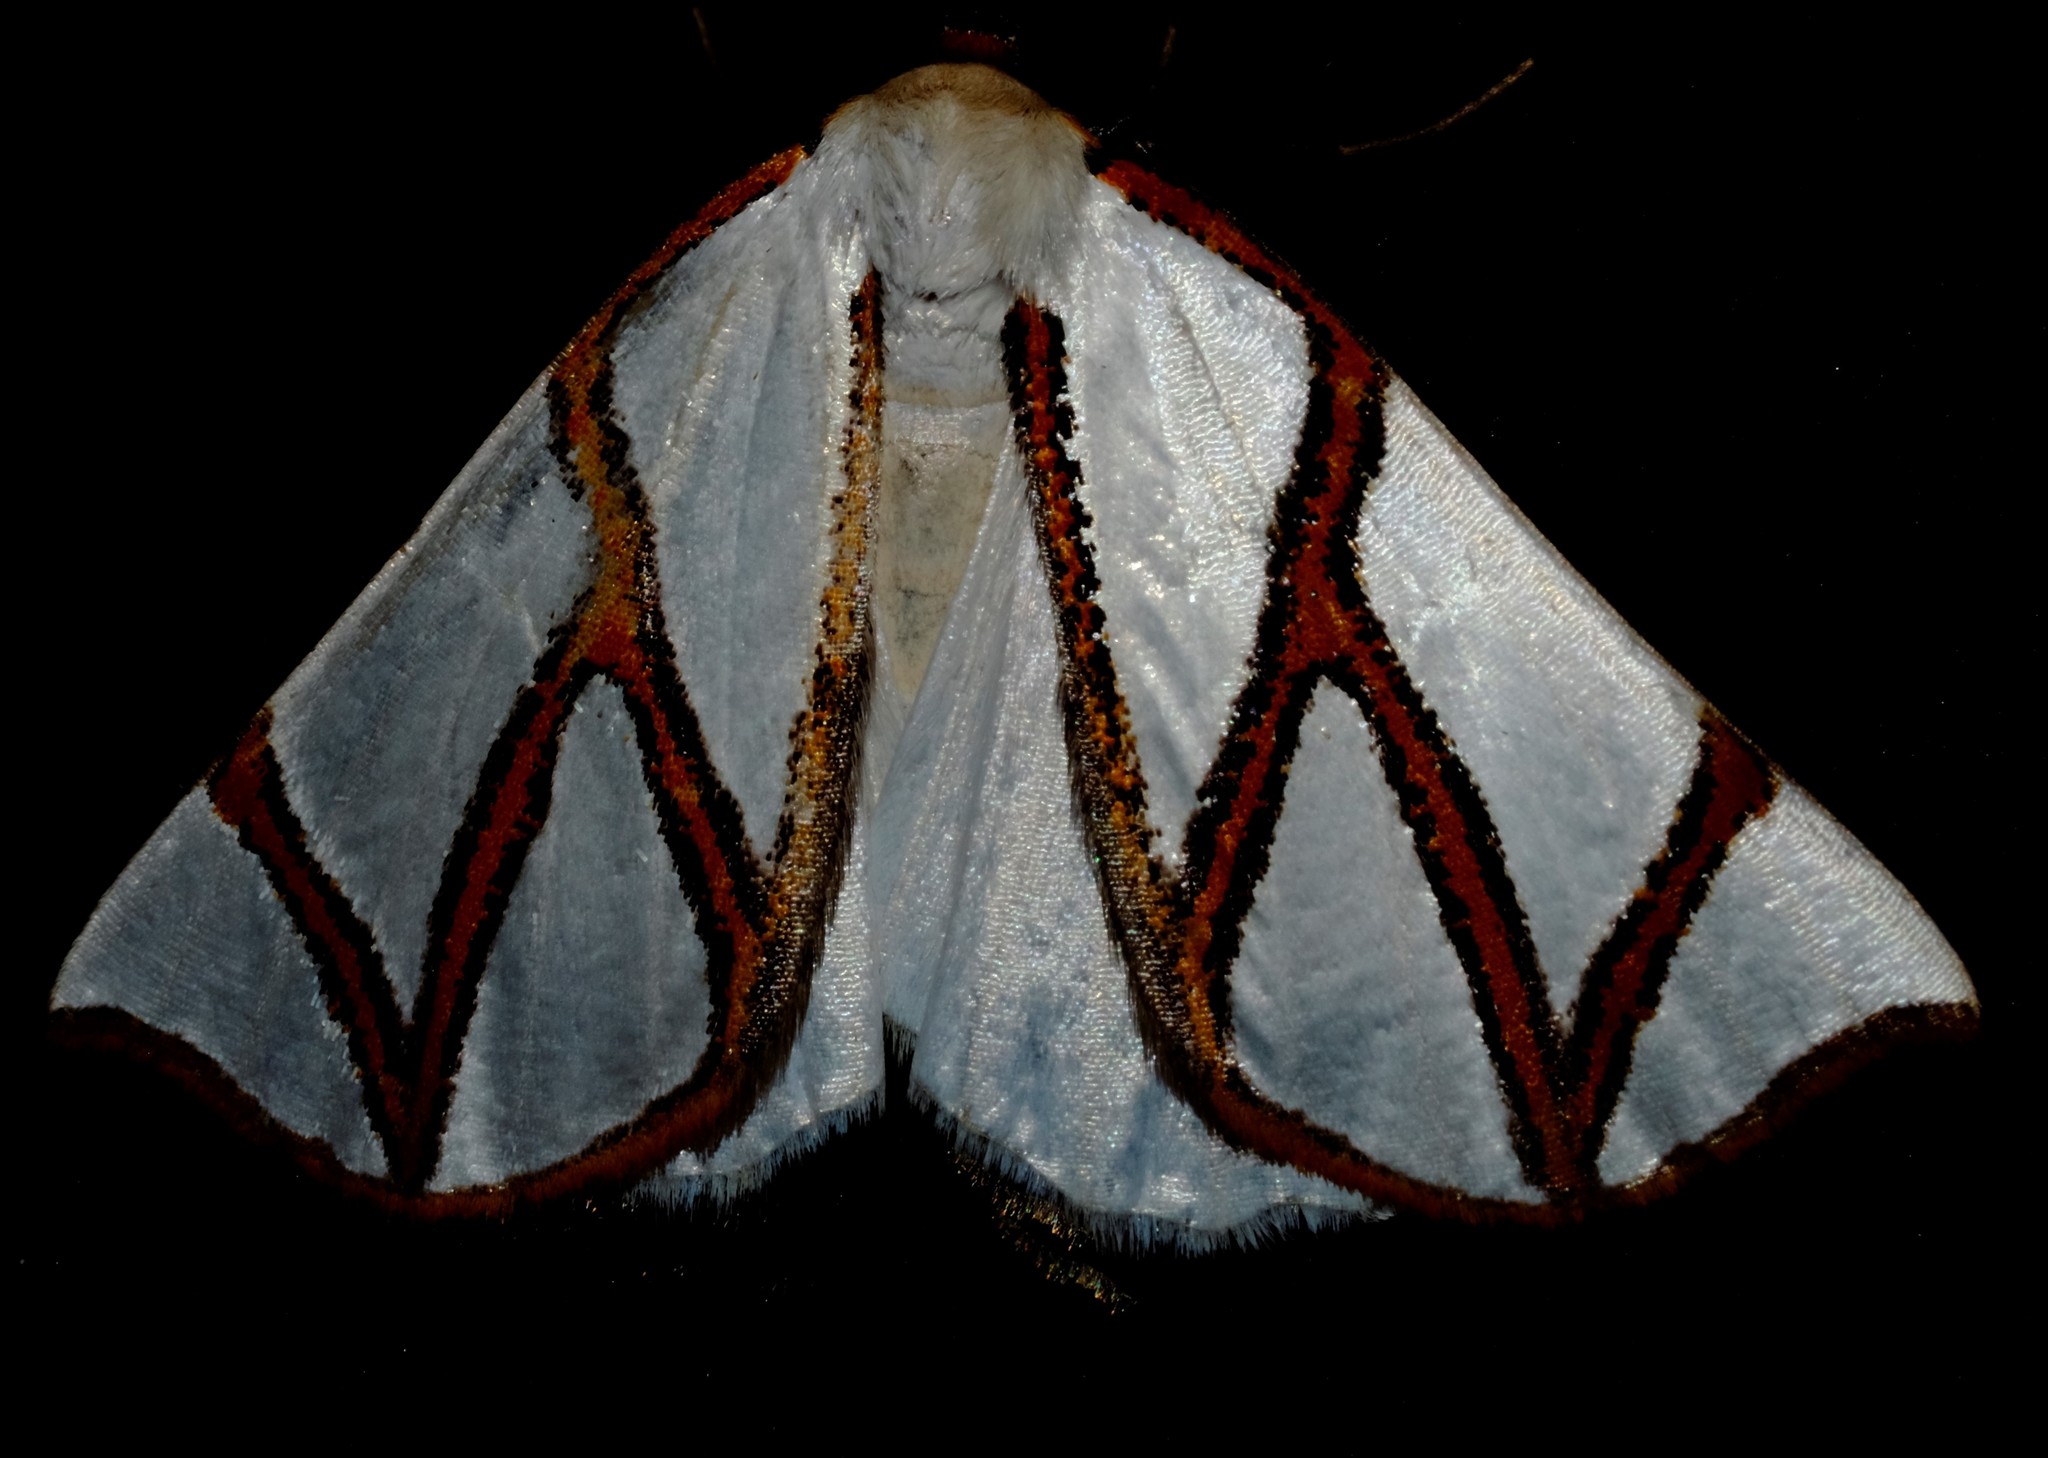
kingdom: Animalia
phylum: Arthropoda
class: Insecta
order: Lepidoptera
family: Geometridae
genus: Thalaina
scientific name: Thalaina clara
